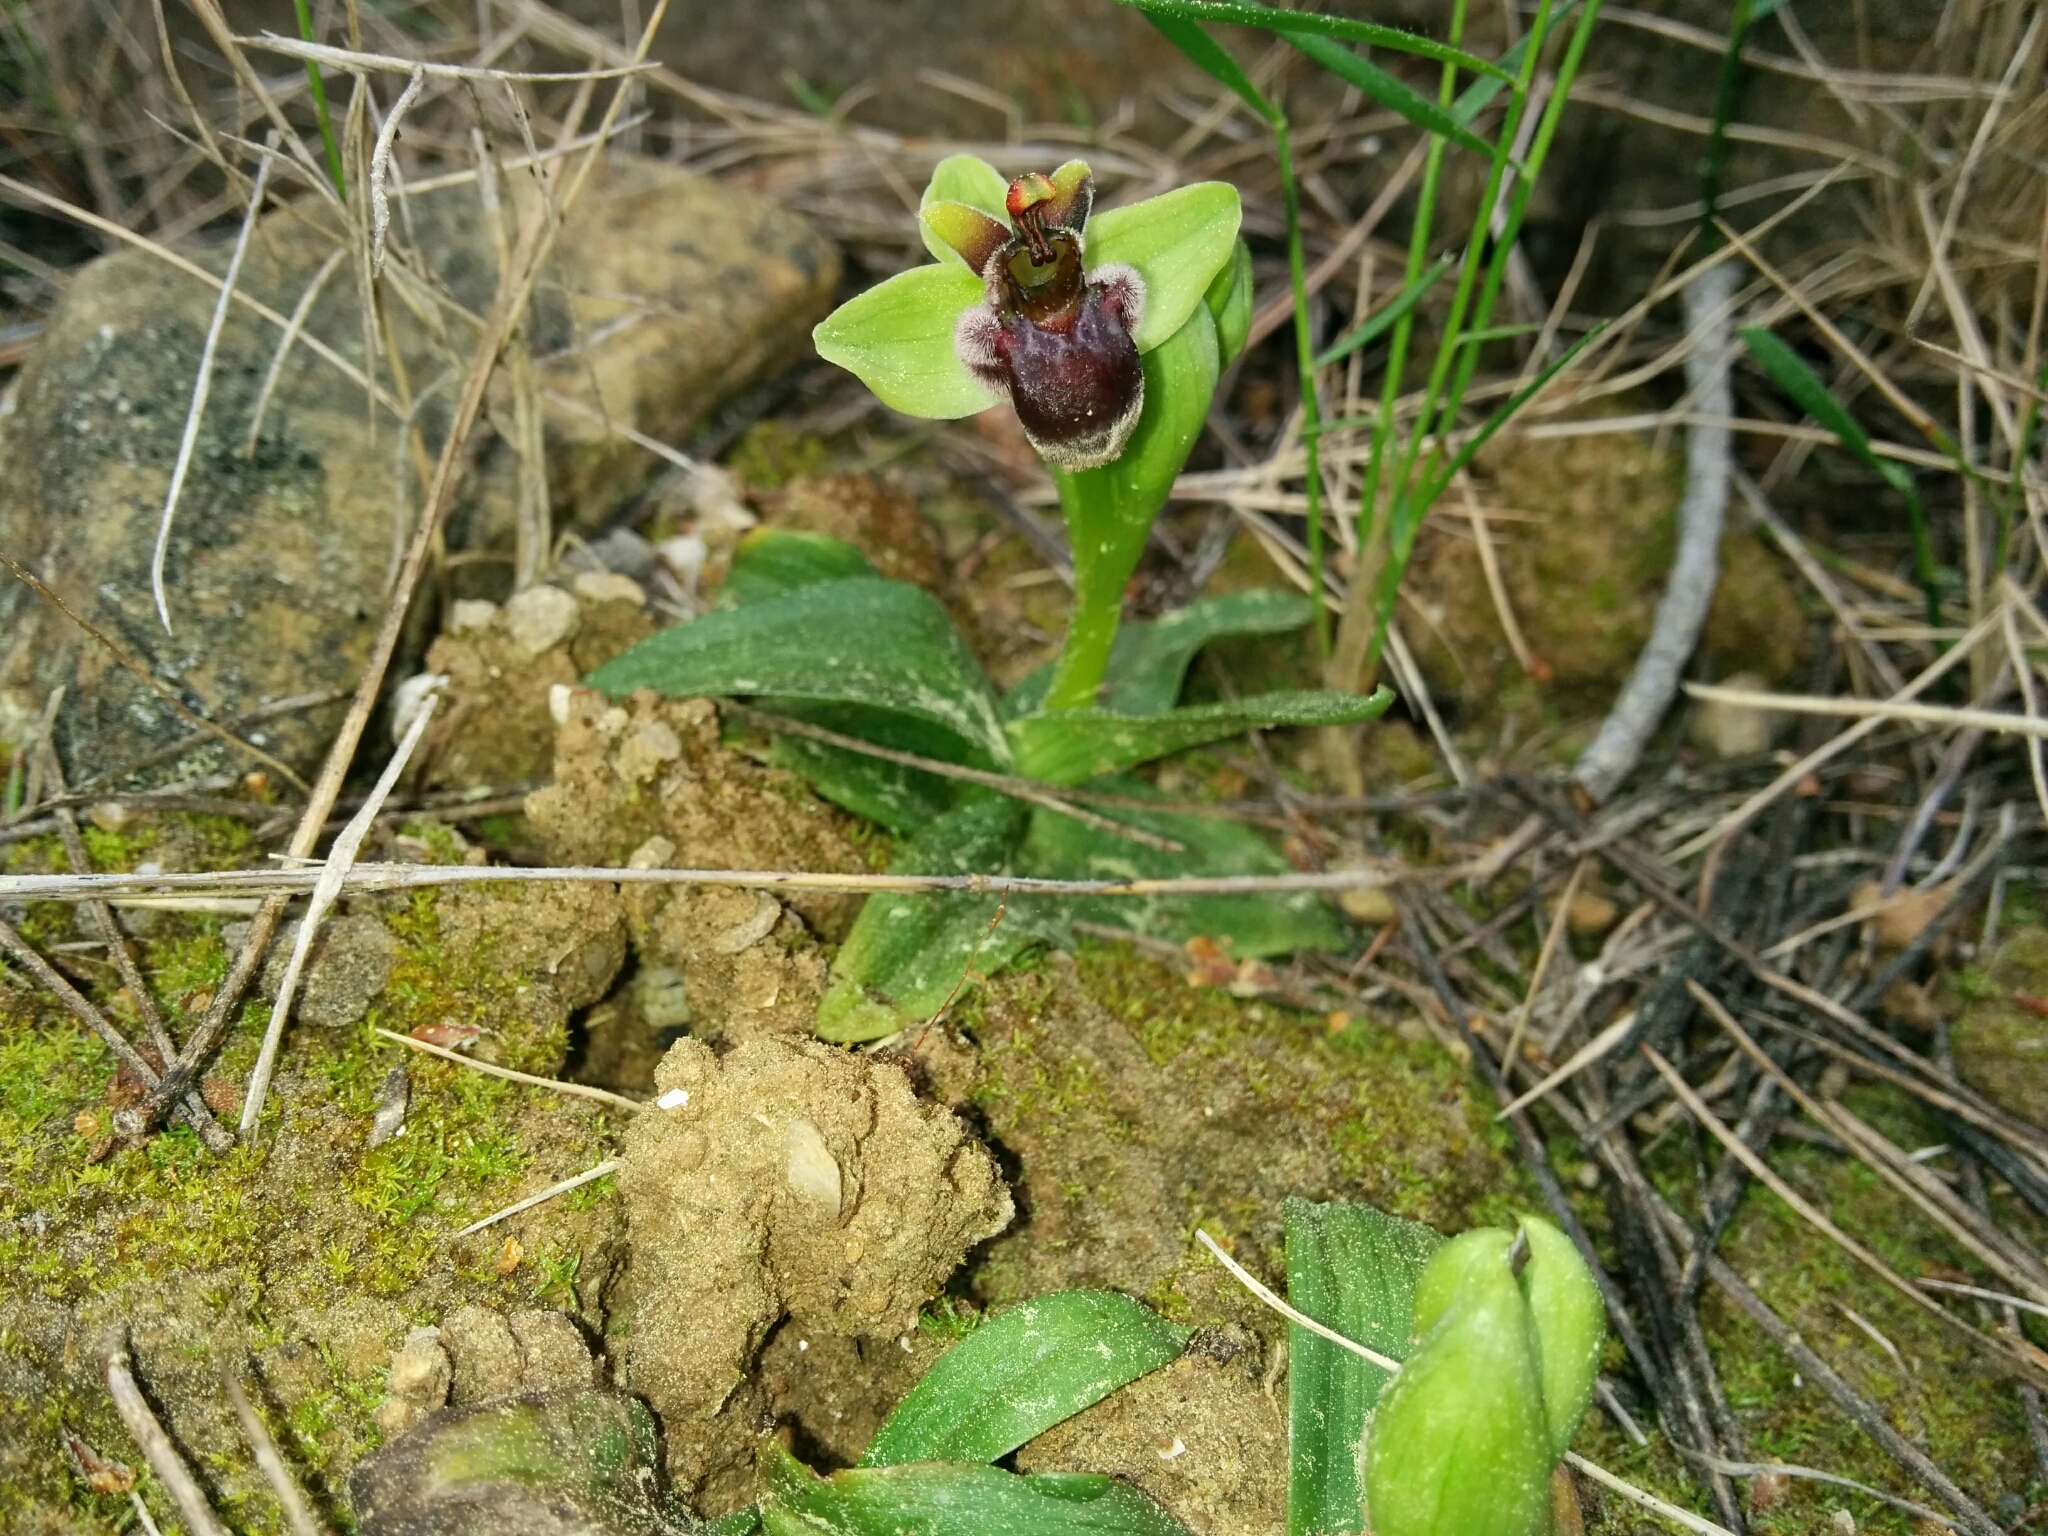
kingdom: Plantae
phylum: Tracheophyta
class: Liliopsida
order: Asparagales
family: Orchidaceae
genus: Ophrys
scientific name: Ophrys bombyliflora
